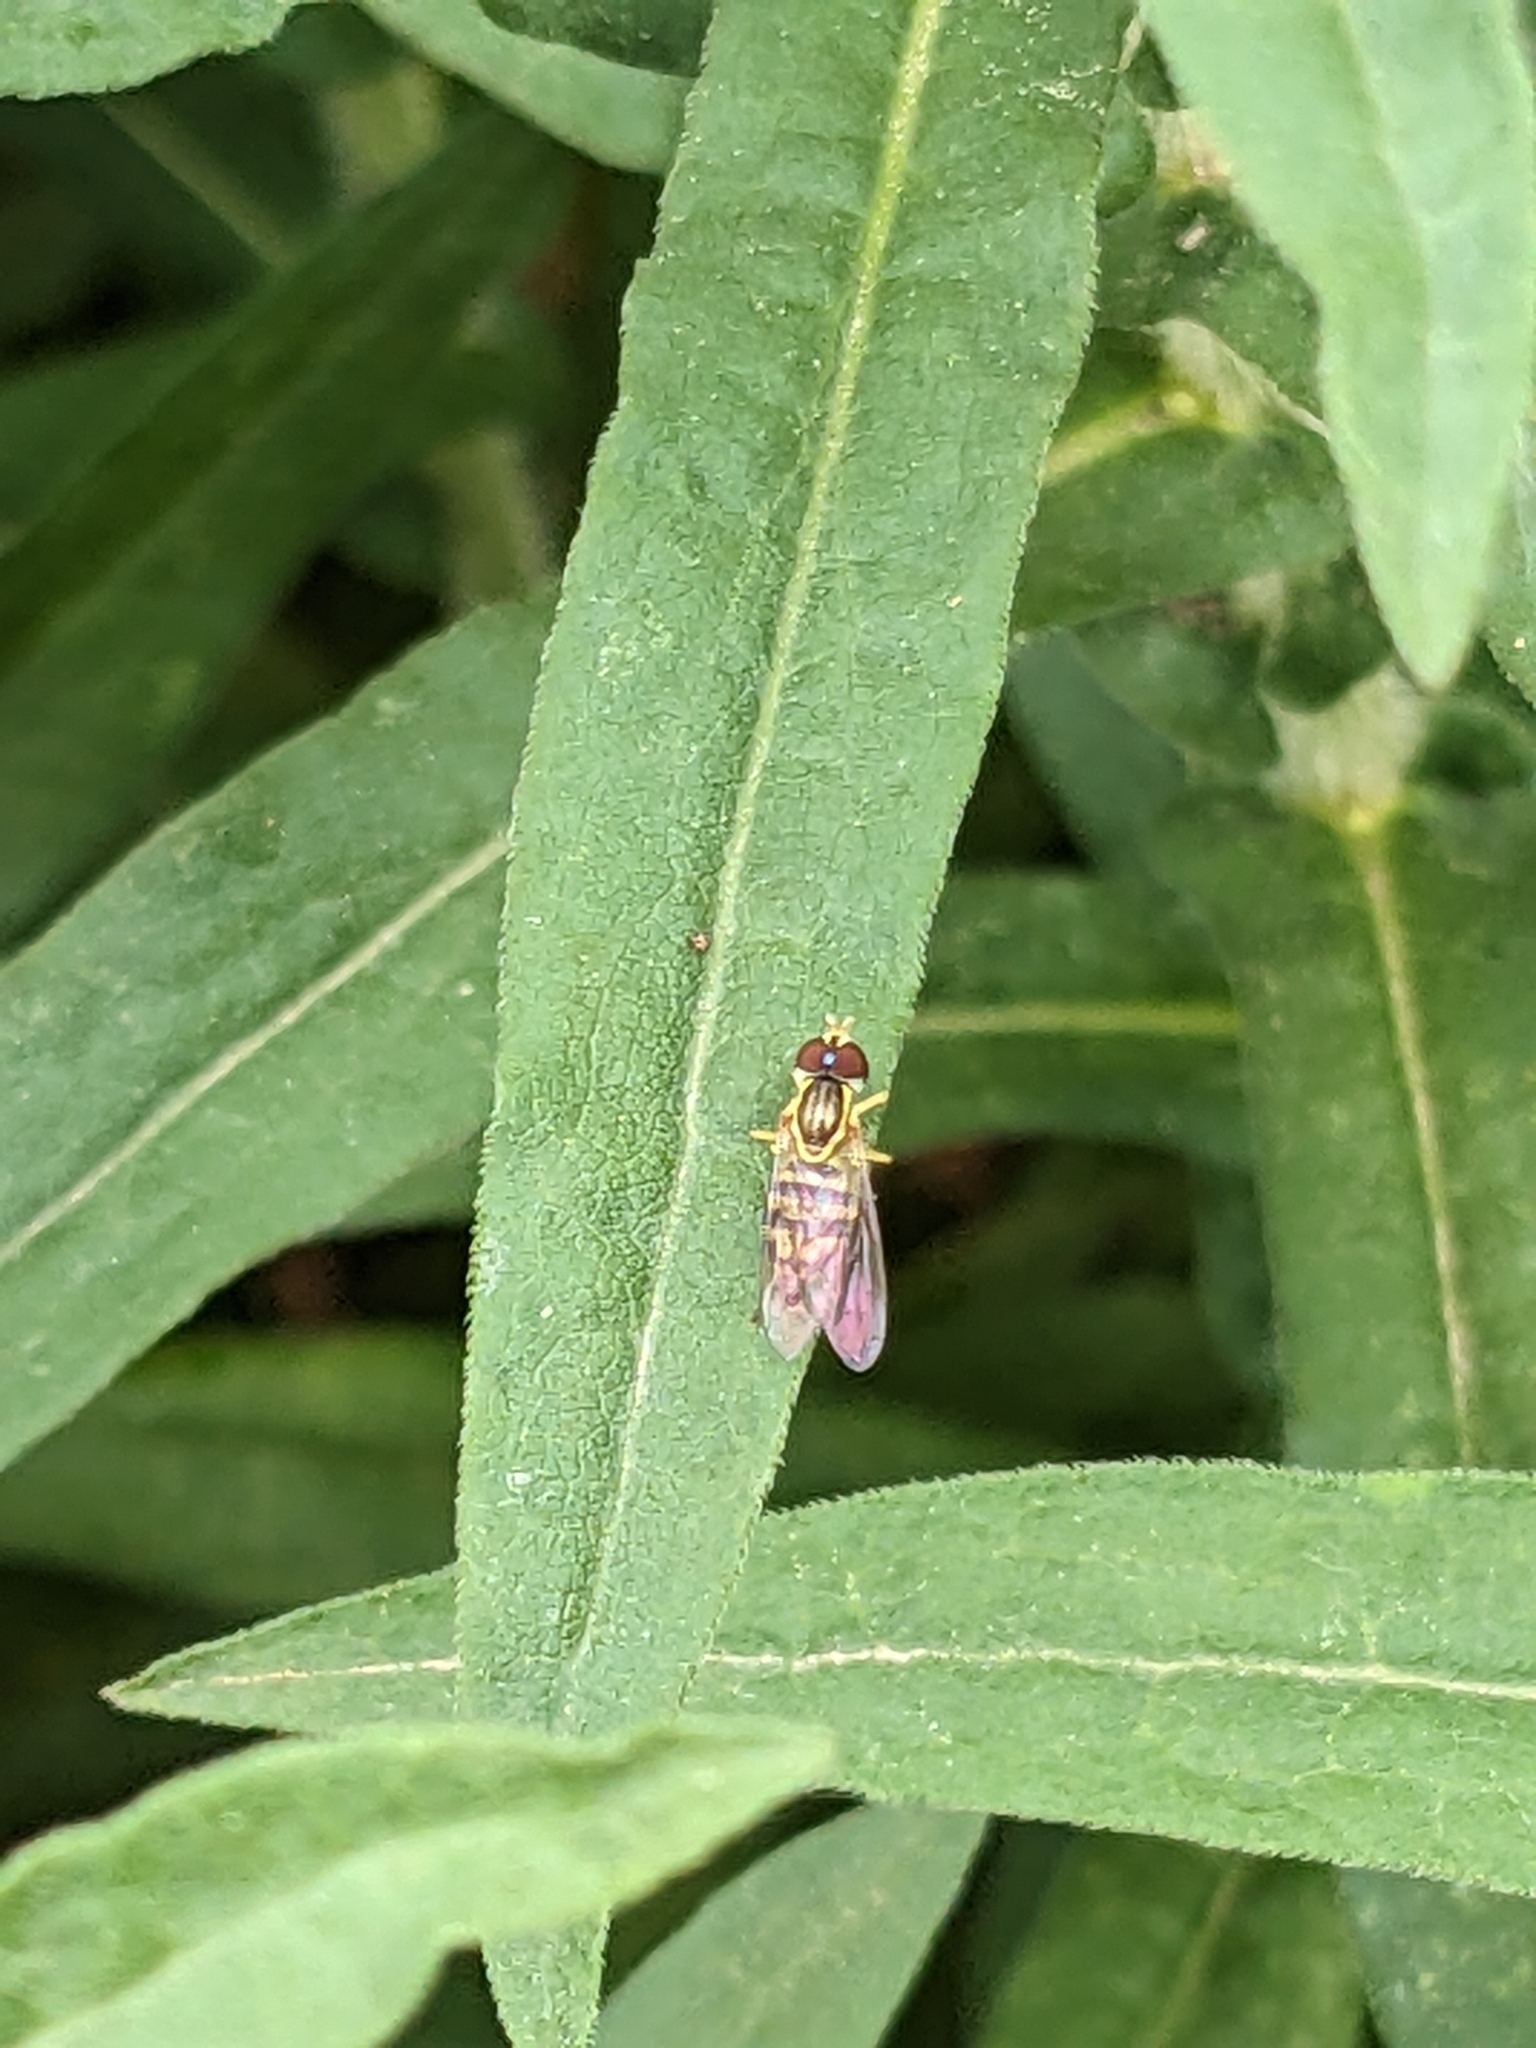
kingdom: Animalia
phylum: Arthropoda
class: Insecta
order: Diptera
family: Syrphidae
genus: Toxomerus
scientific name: Toxomerus geminatus
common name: Eastern calligrapher
